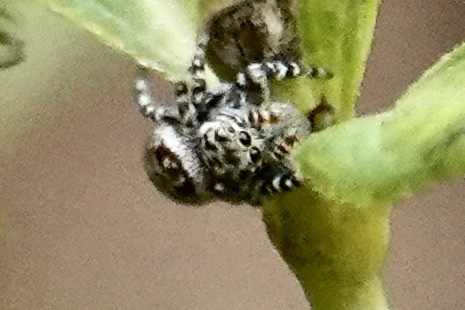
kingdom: Animalia
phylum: Arthropoda
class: Arachnida
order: Araneae
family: Salticidae
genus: Pelegrina
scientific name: Pelegrina galathea
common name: Jumping spiders
